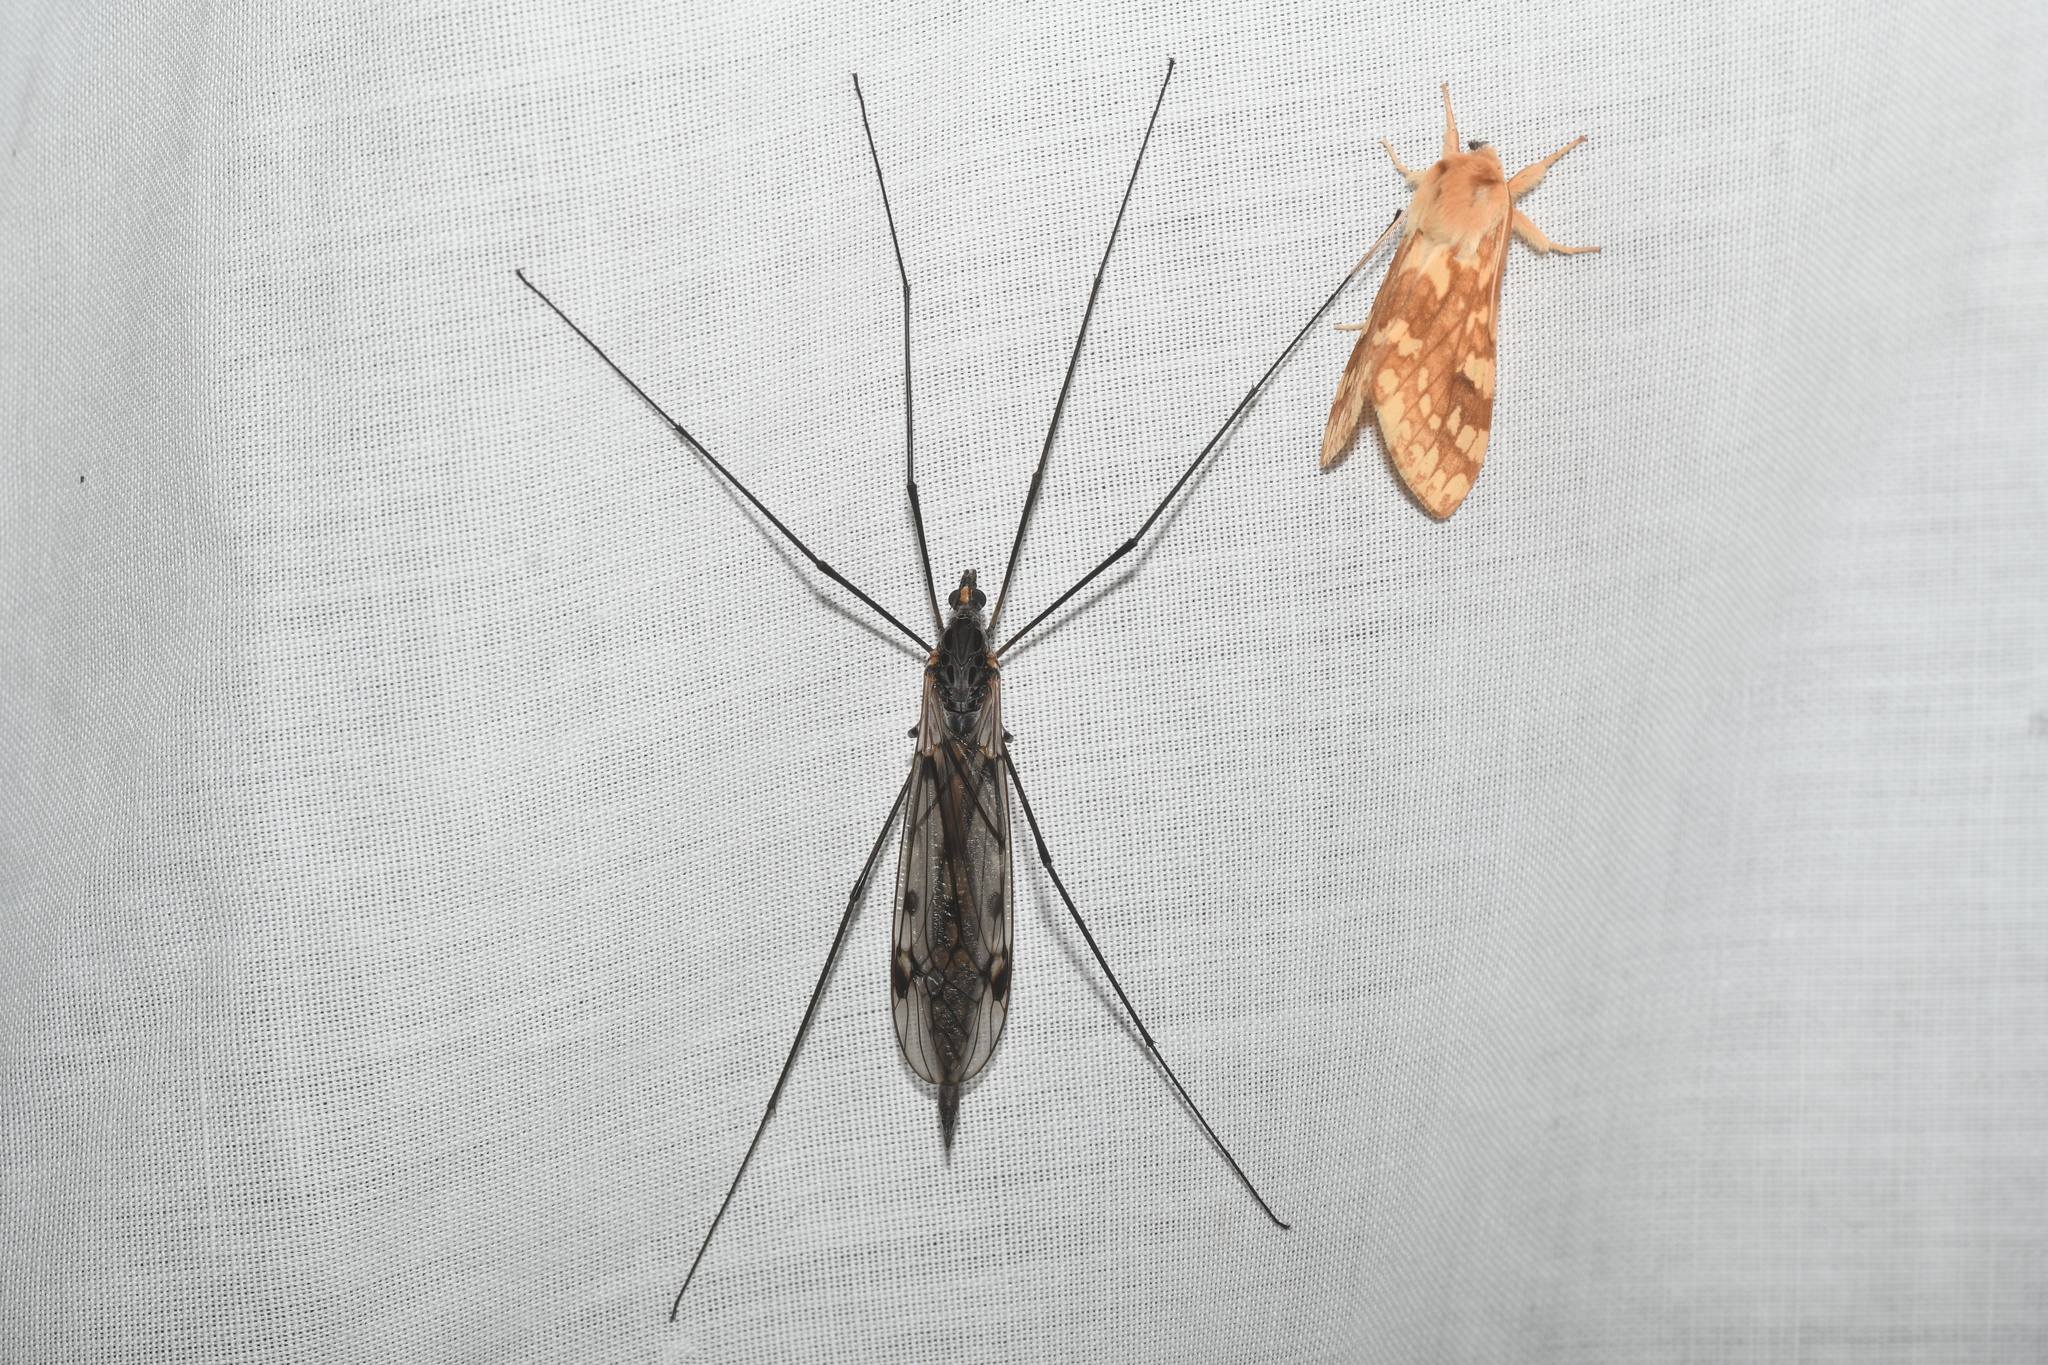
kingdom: Animalia
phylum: Arthropoda
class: Insecta
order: Diptera
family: Tipulidae
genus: Tipula
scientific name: Tipula metacomet
